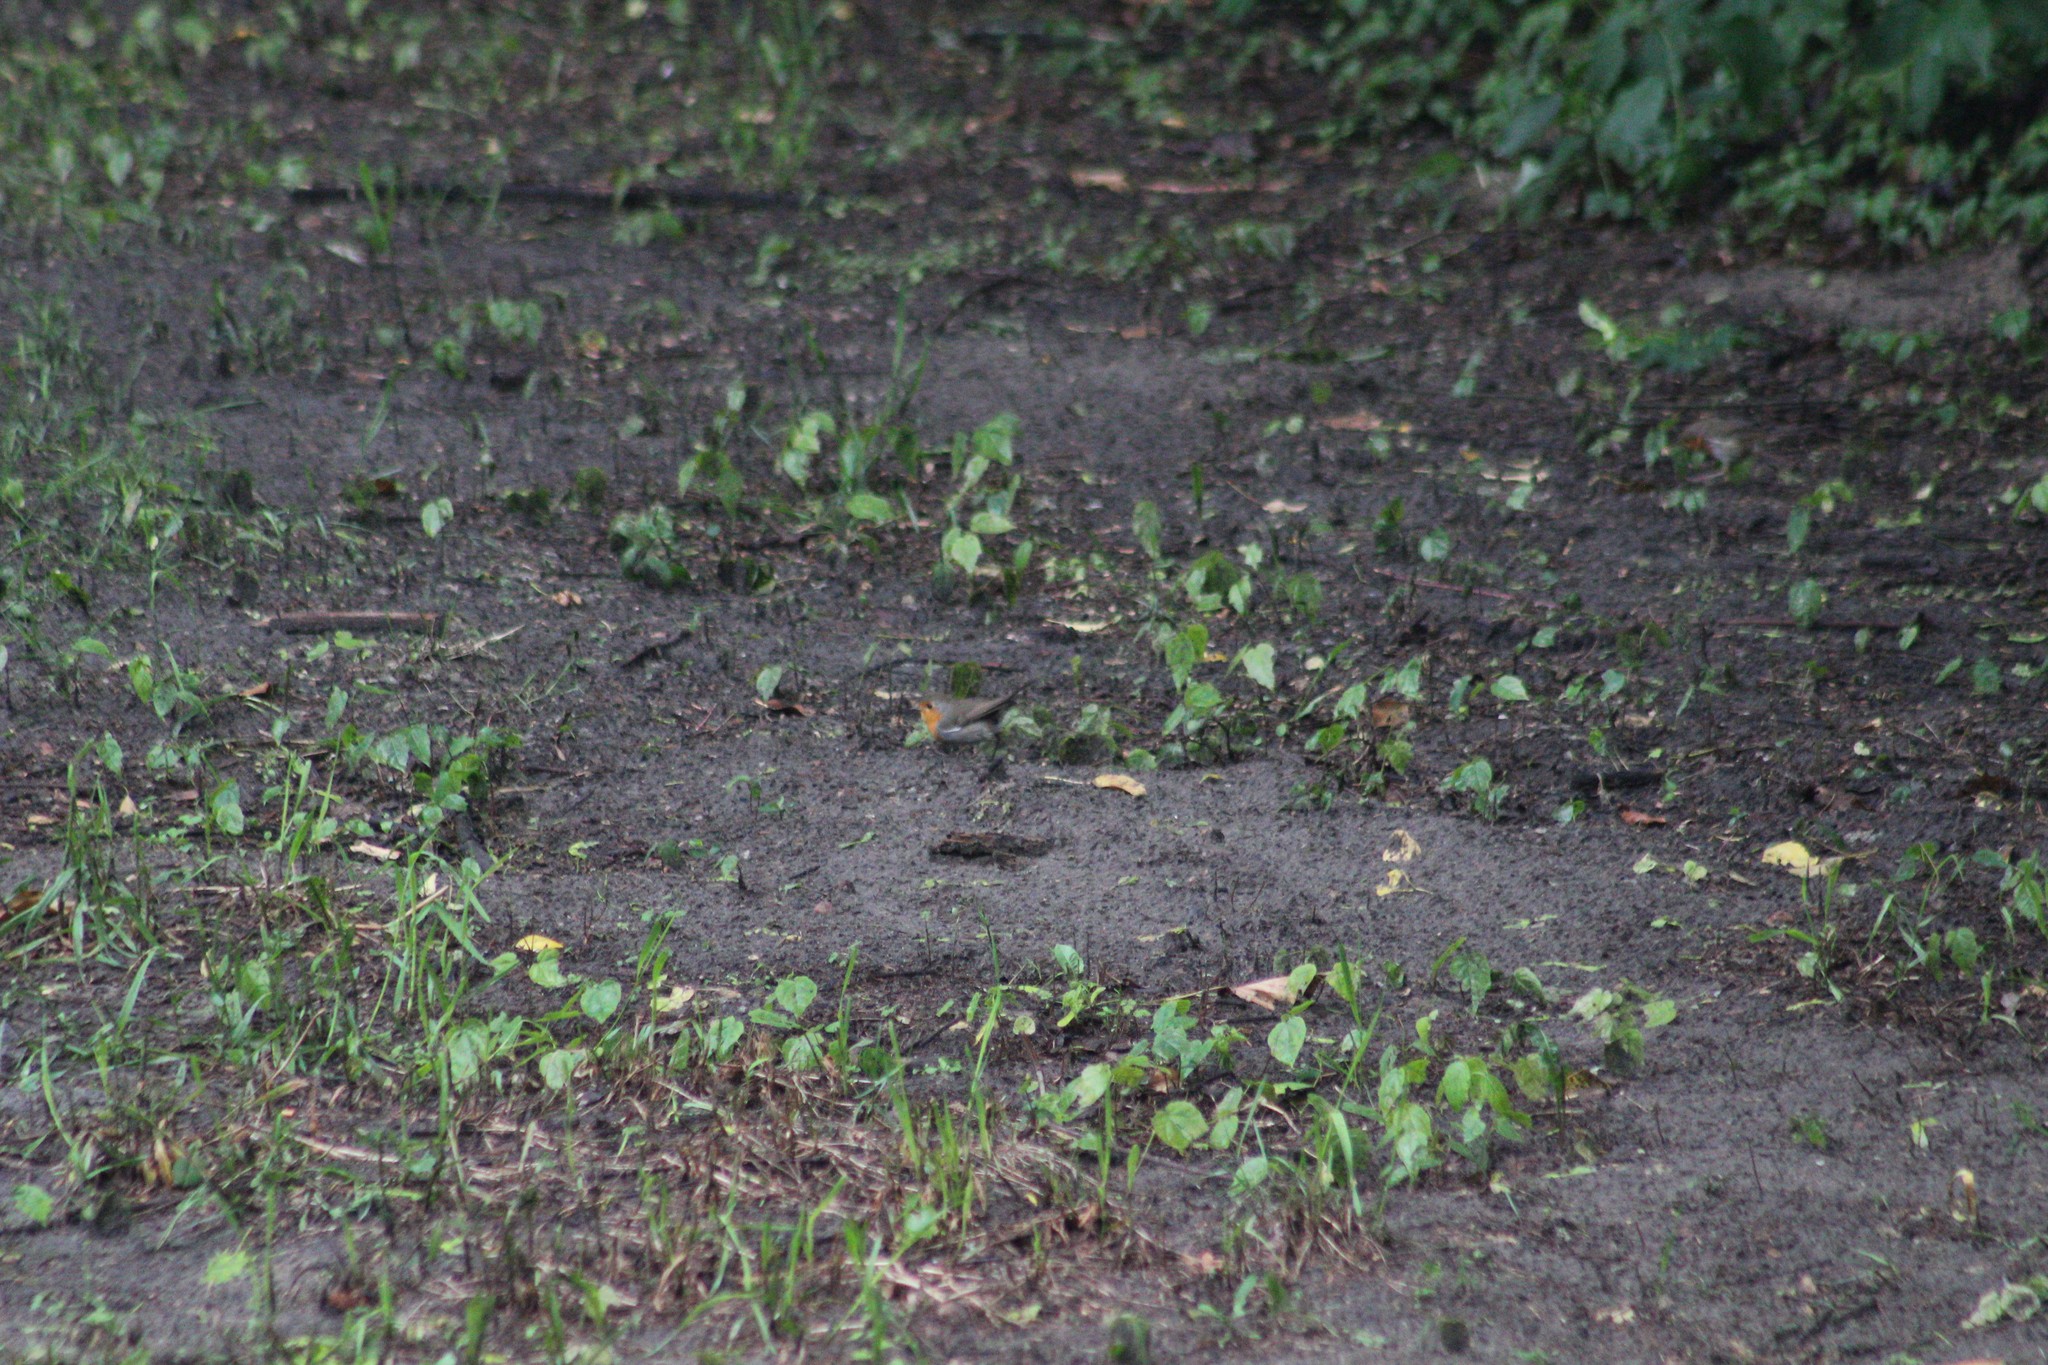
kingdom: Animalia
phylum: Chordata
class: Aves
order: Passeriformes
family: Muscicapidae
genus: Erithacus
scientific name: Erithacus rubecula
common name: European robin
